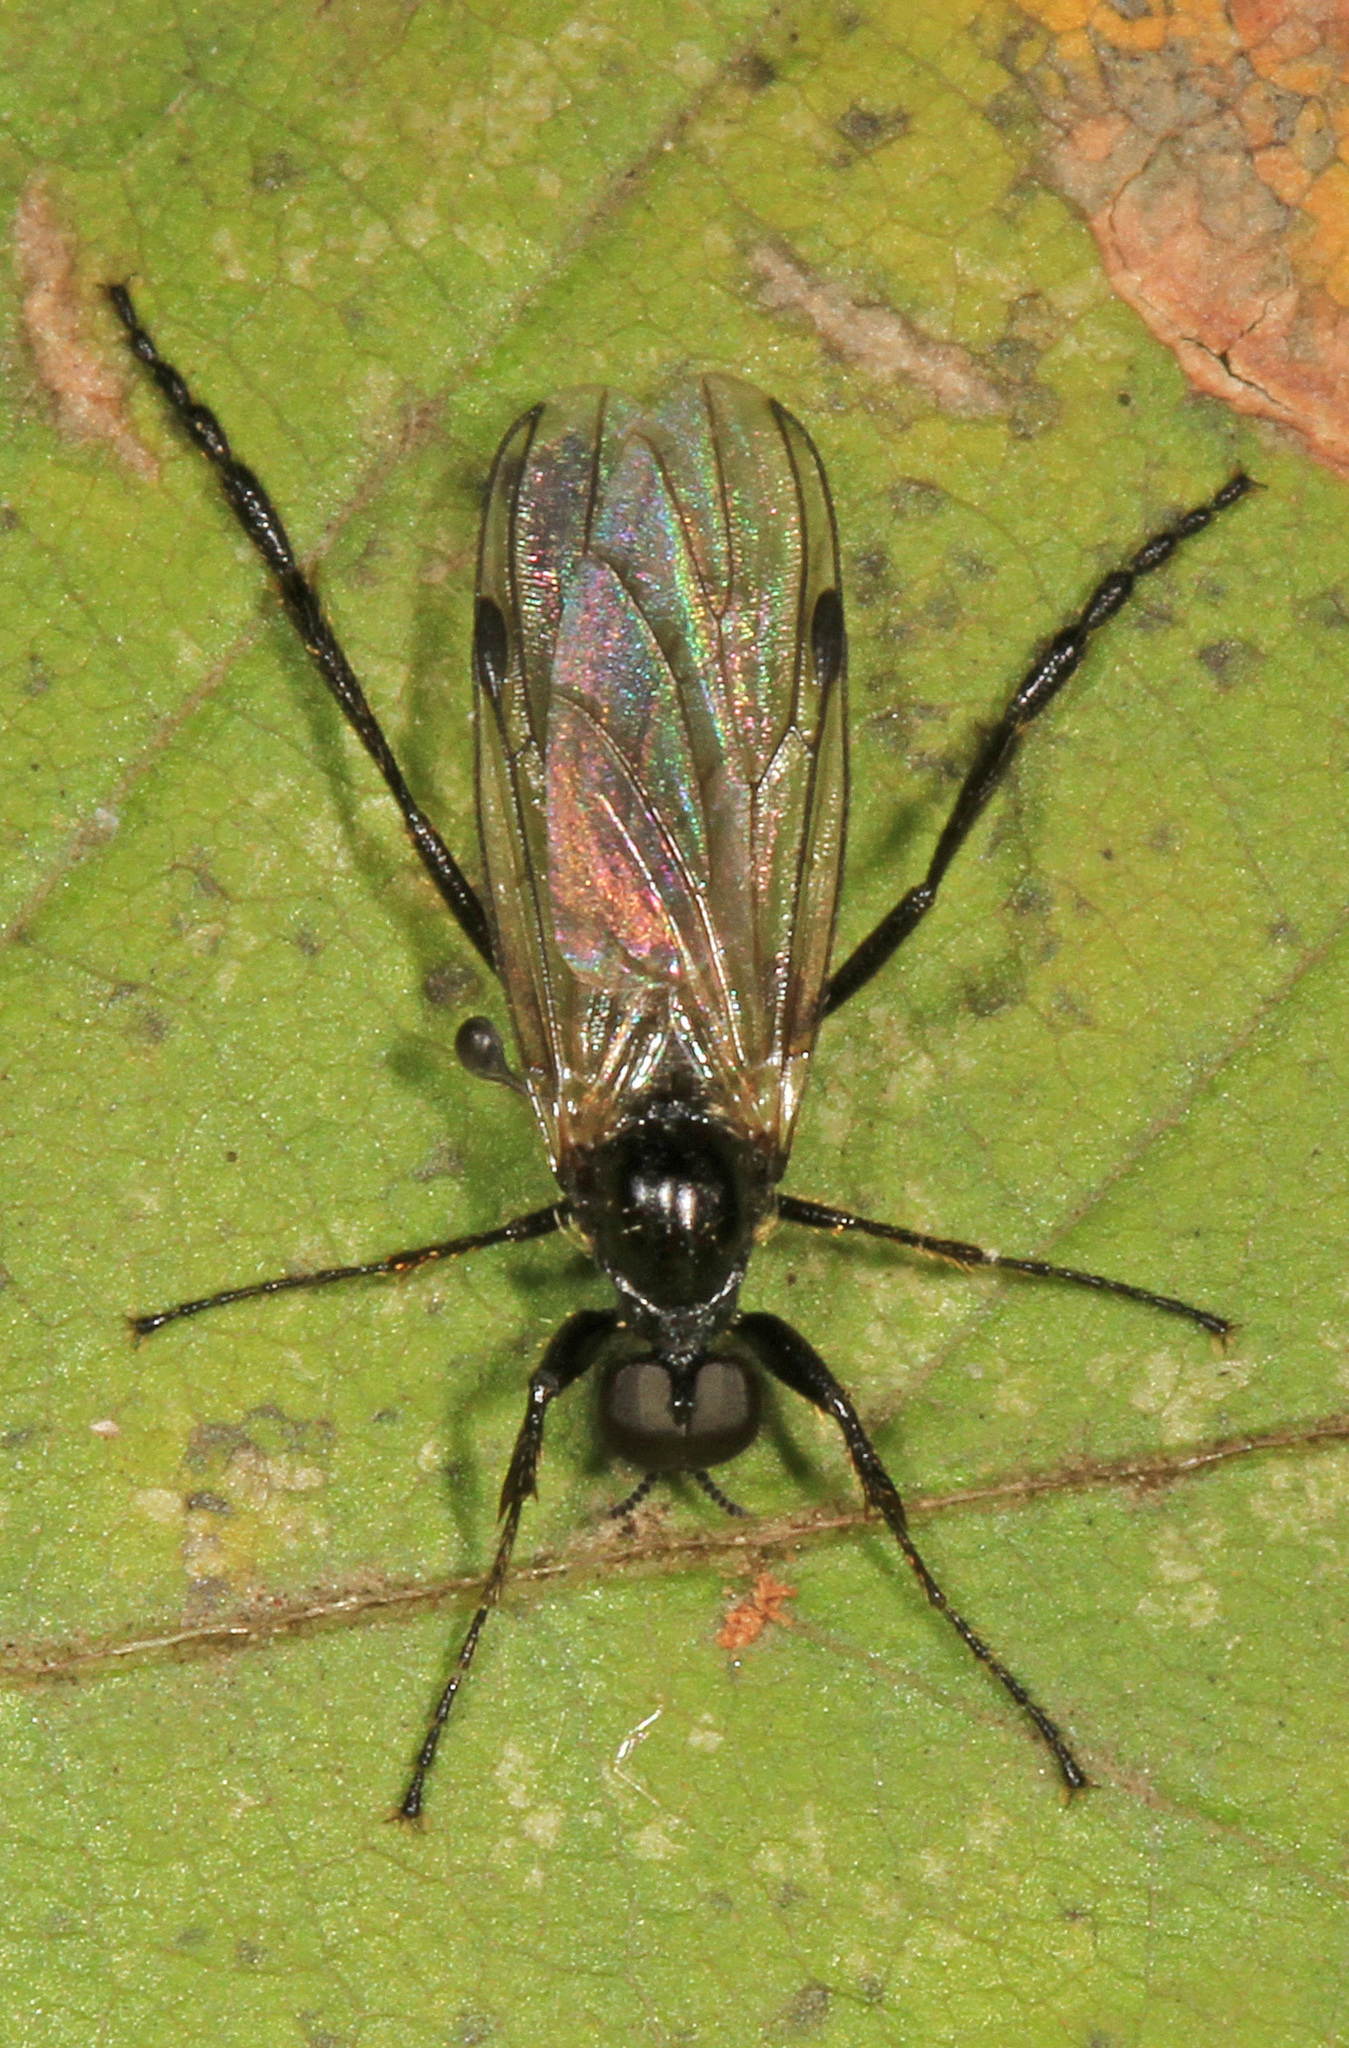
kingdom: Animalia
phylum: Arthropoda
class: Insecta
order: Diptera
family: Bibionidae
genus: Bibio
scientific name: Bibio longipes
